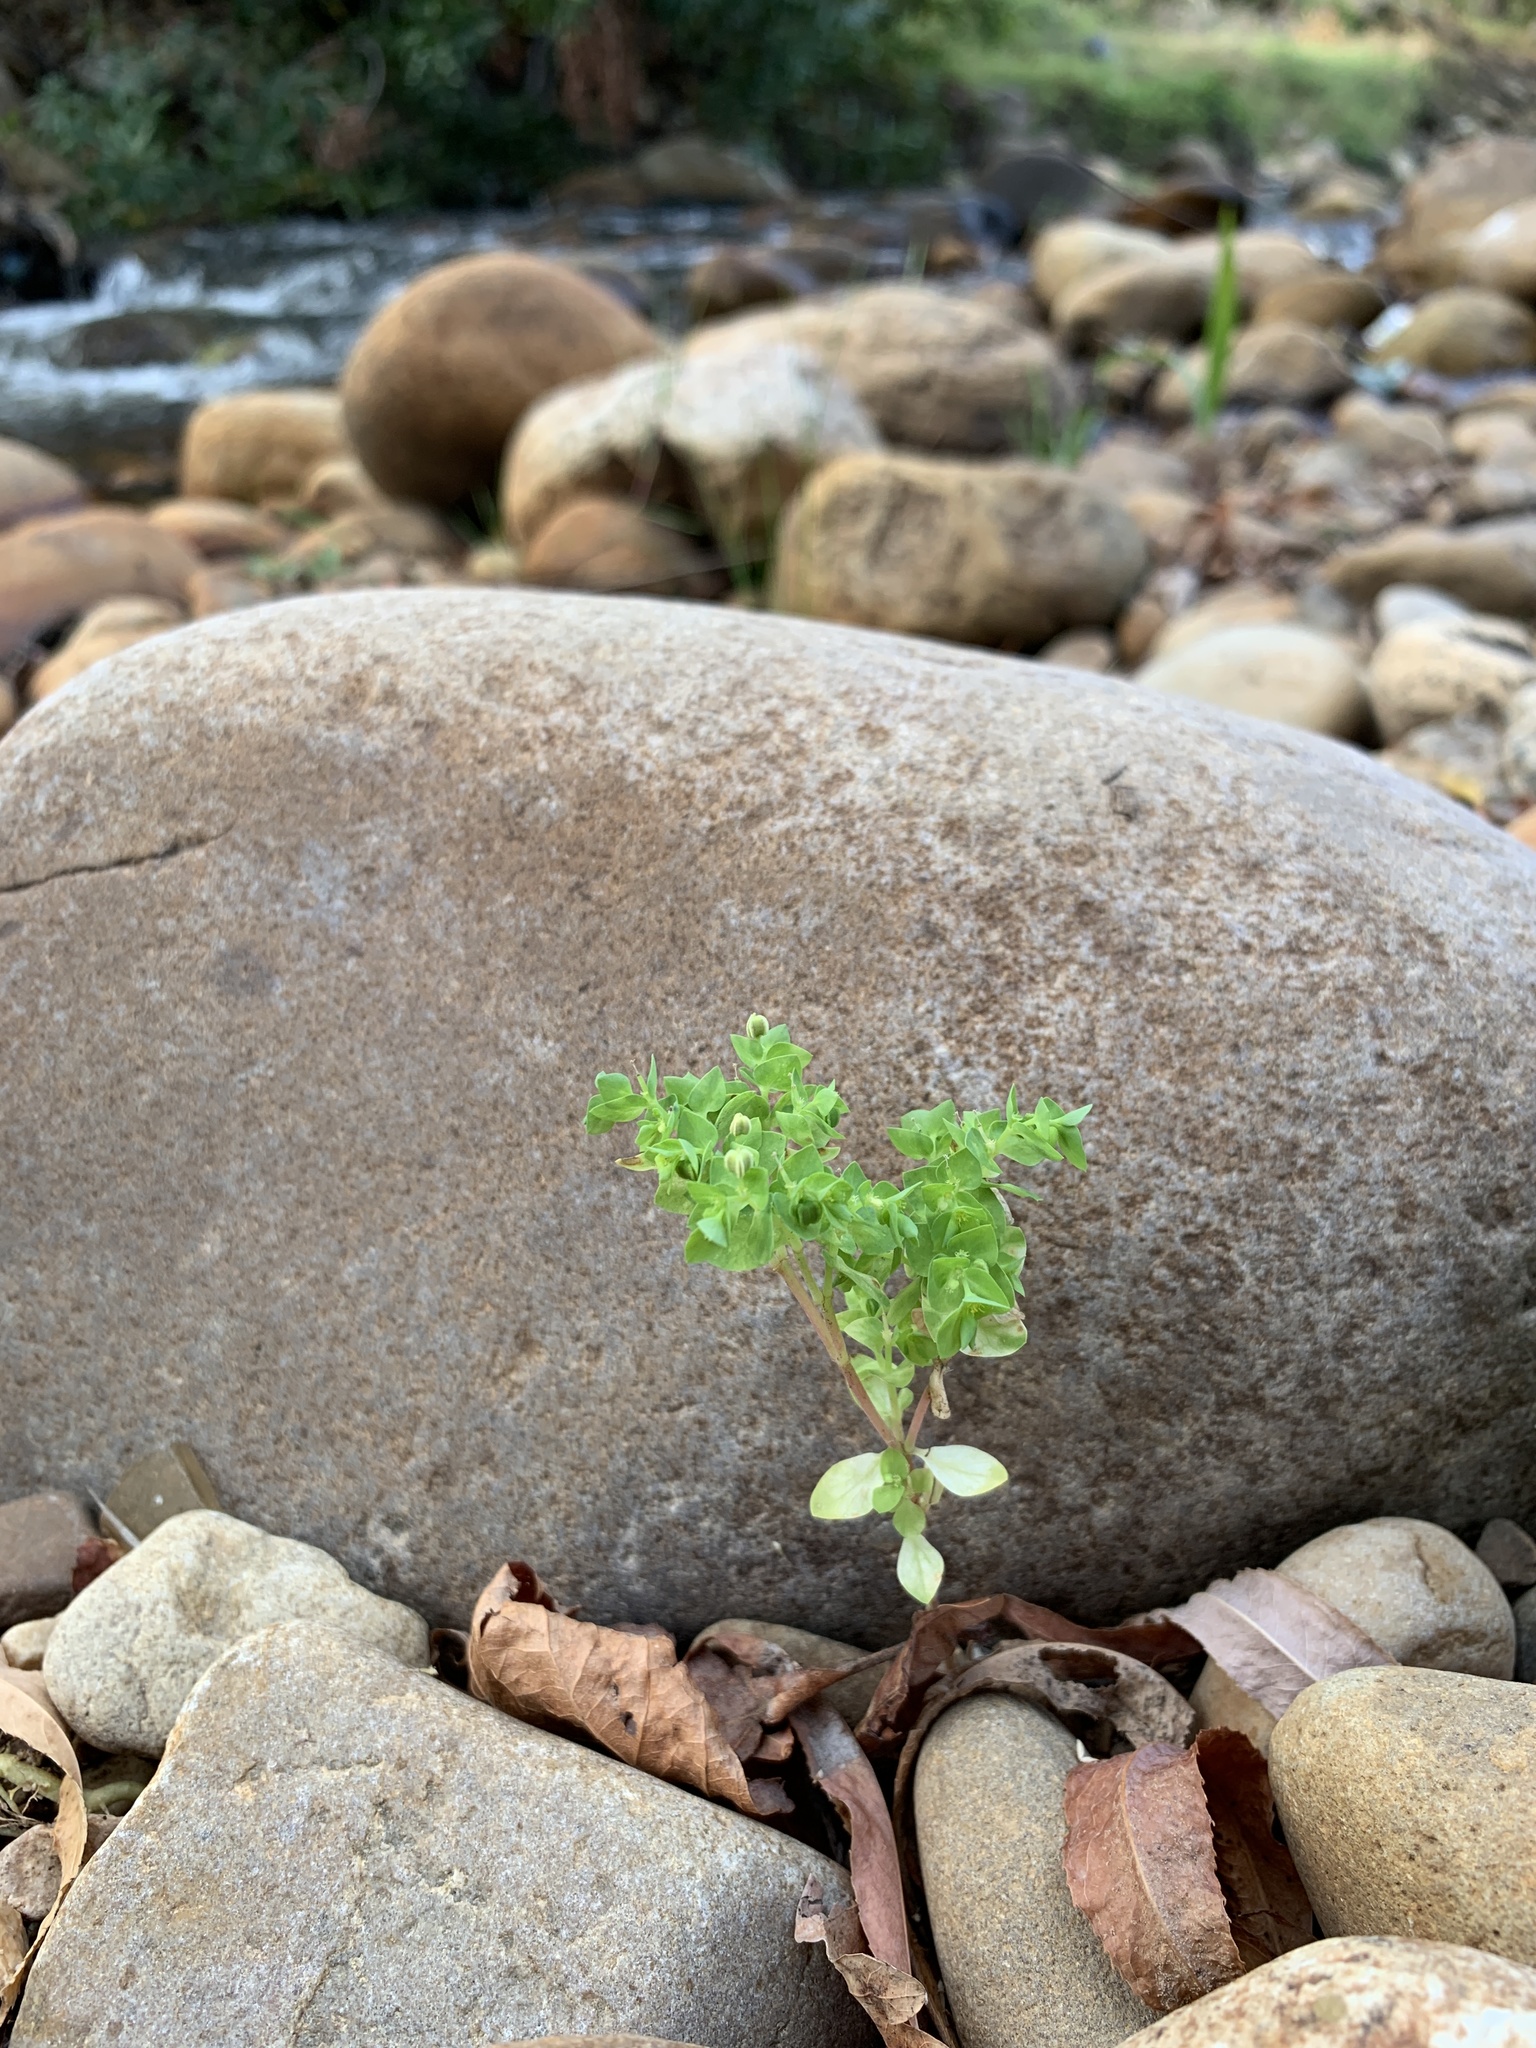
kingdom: Plantae
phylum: Tracheophyta
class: Magnoliopsida
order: Malpighiales
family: Euphorbiaceae
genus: Euphorbia
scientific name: Euphorbia peplus
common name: Petty spurge
